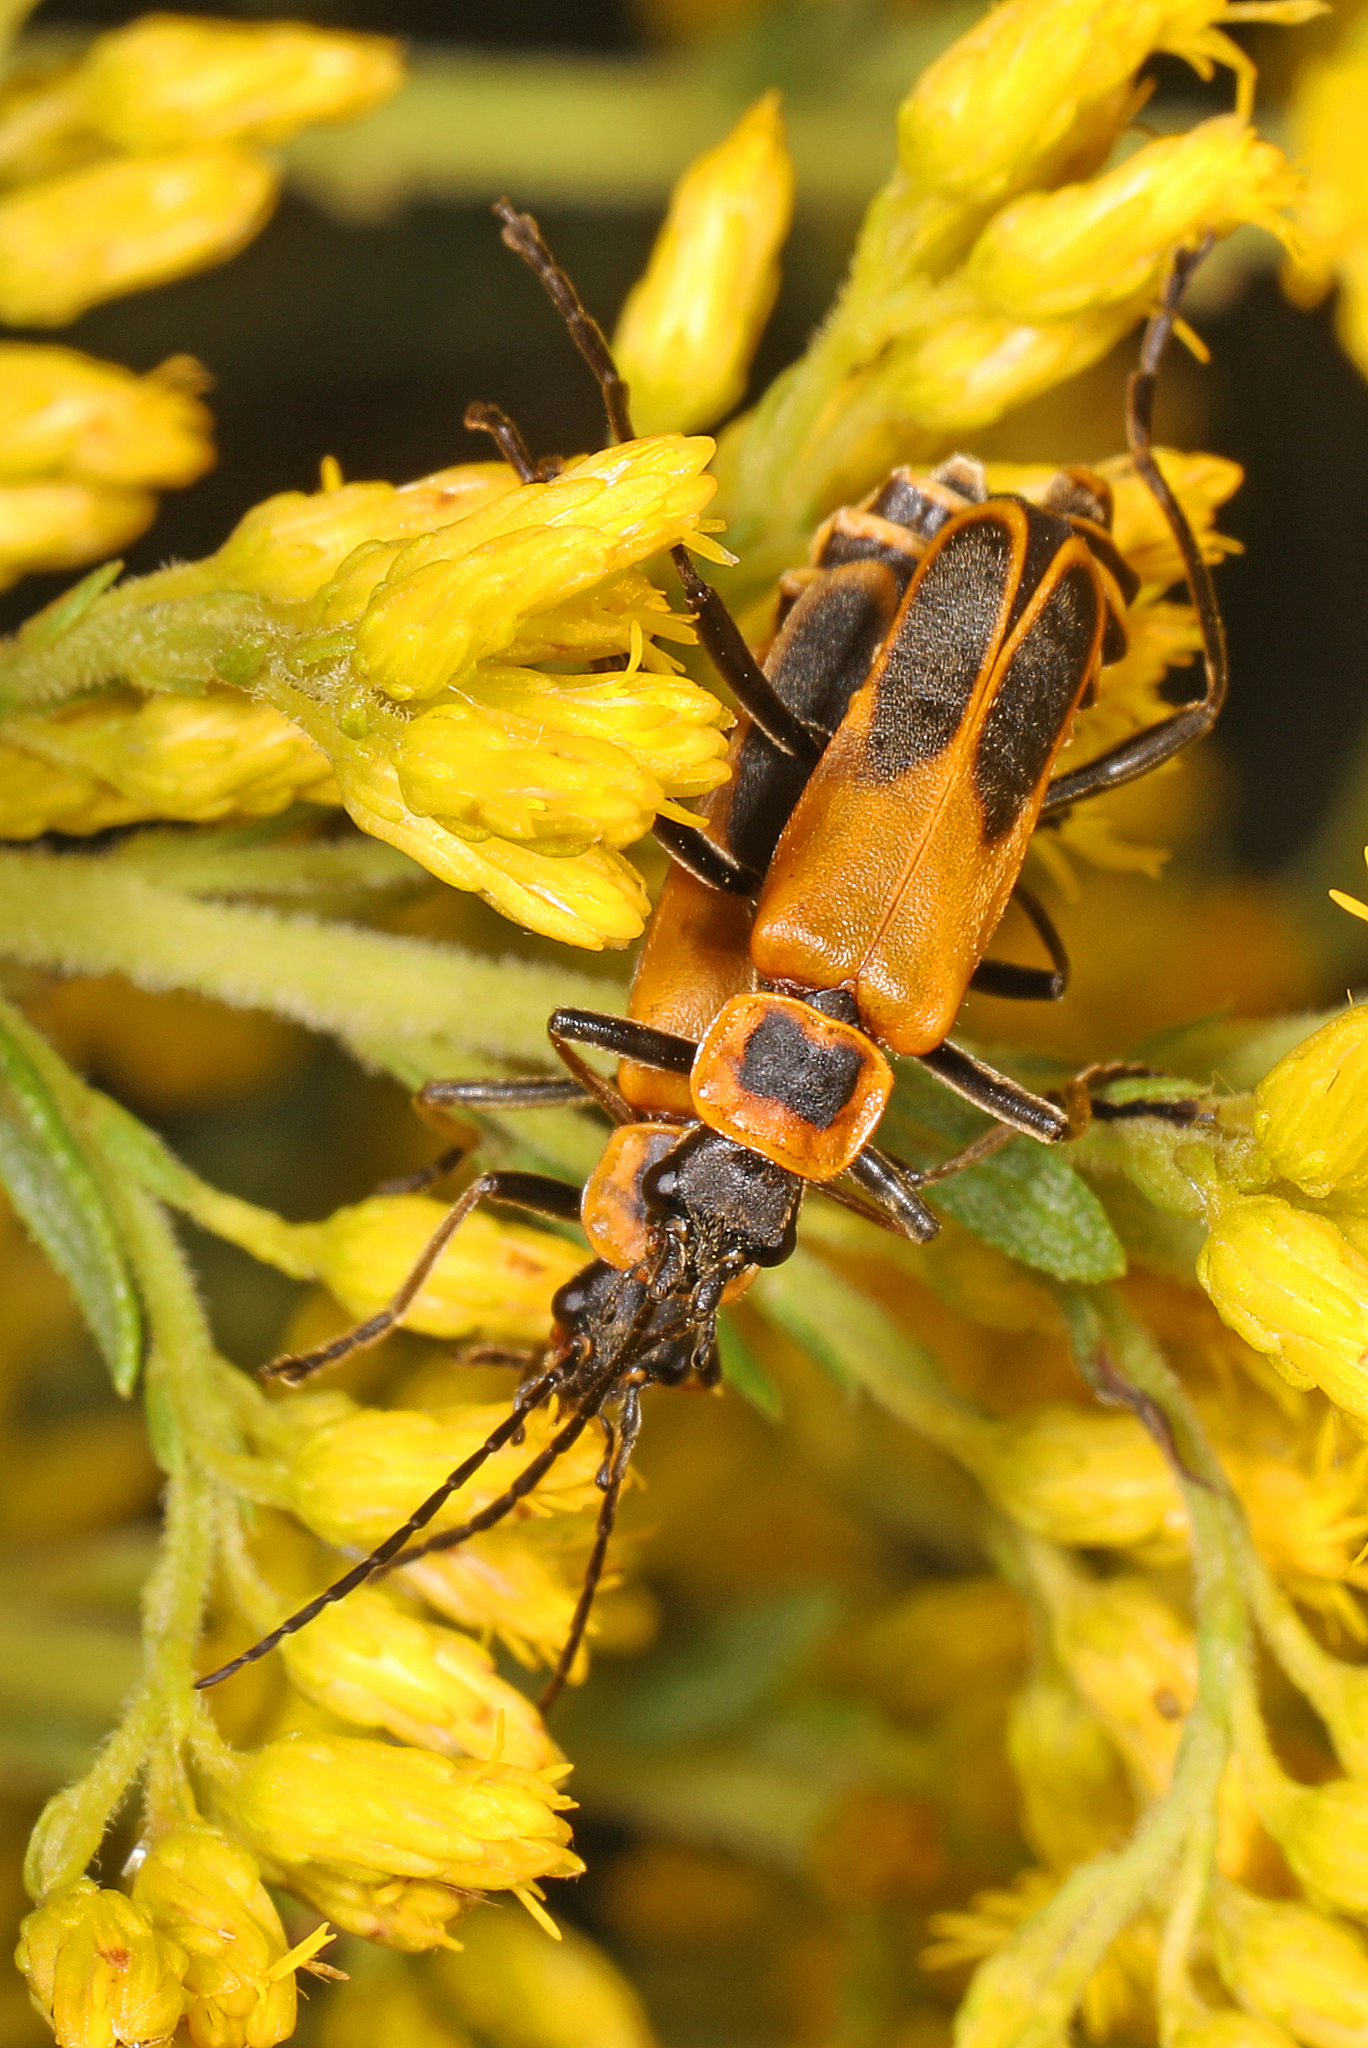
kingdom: Animalia
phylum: Arthropoda
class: Insecta
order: Coleoptera
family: Cantharidae
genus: Chauliognathus
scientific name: Chauliognathus pensylvanicus
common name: Goldenrod soldier beetle
